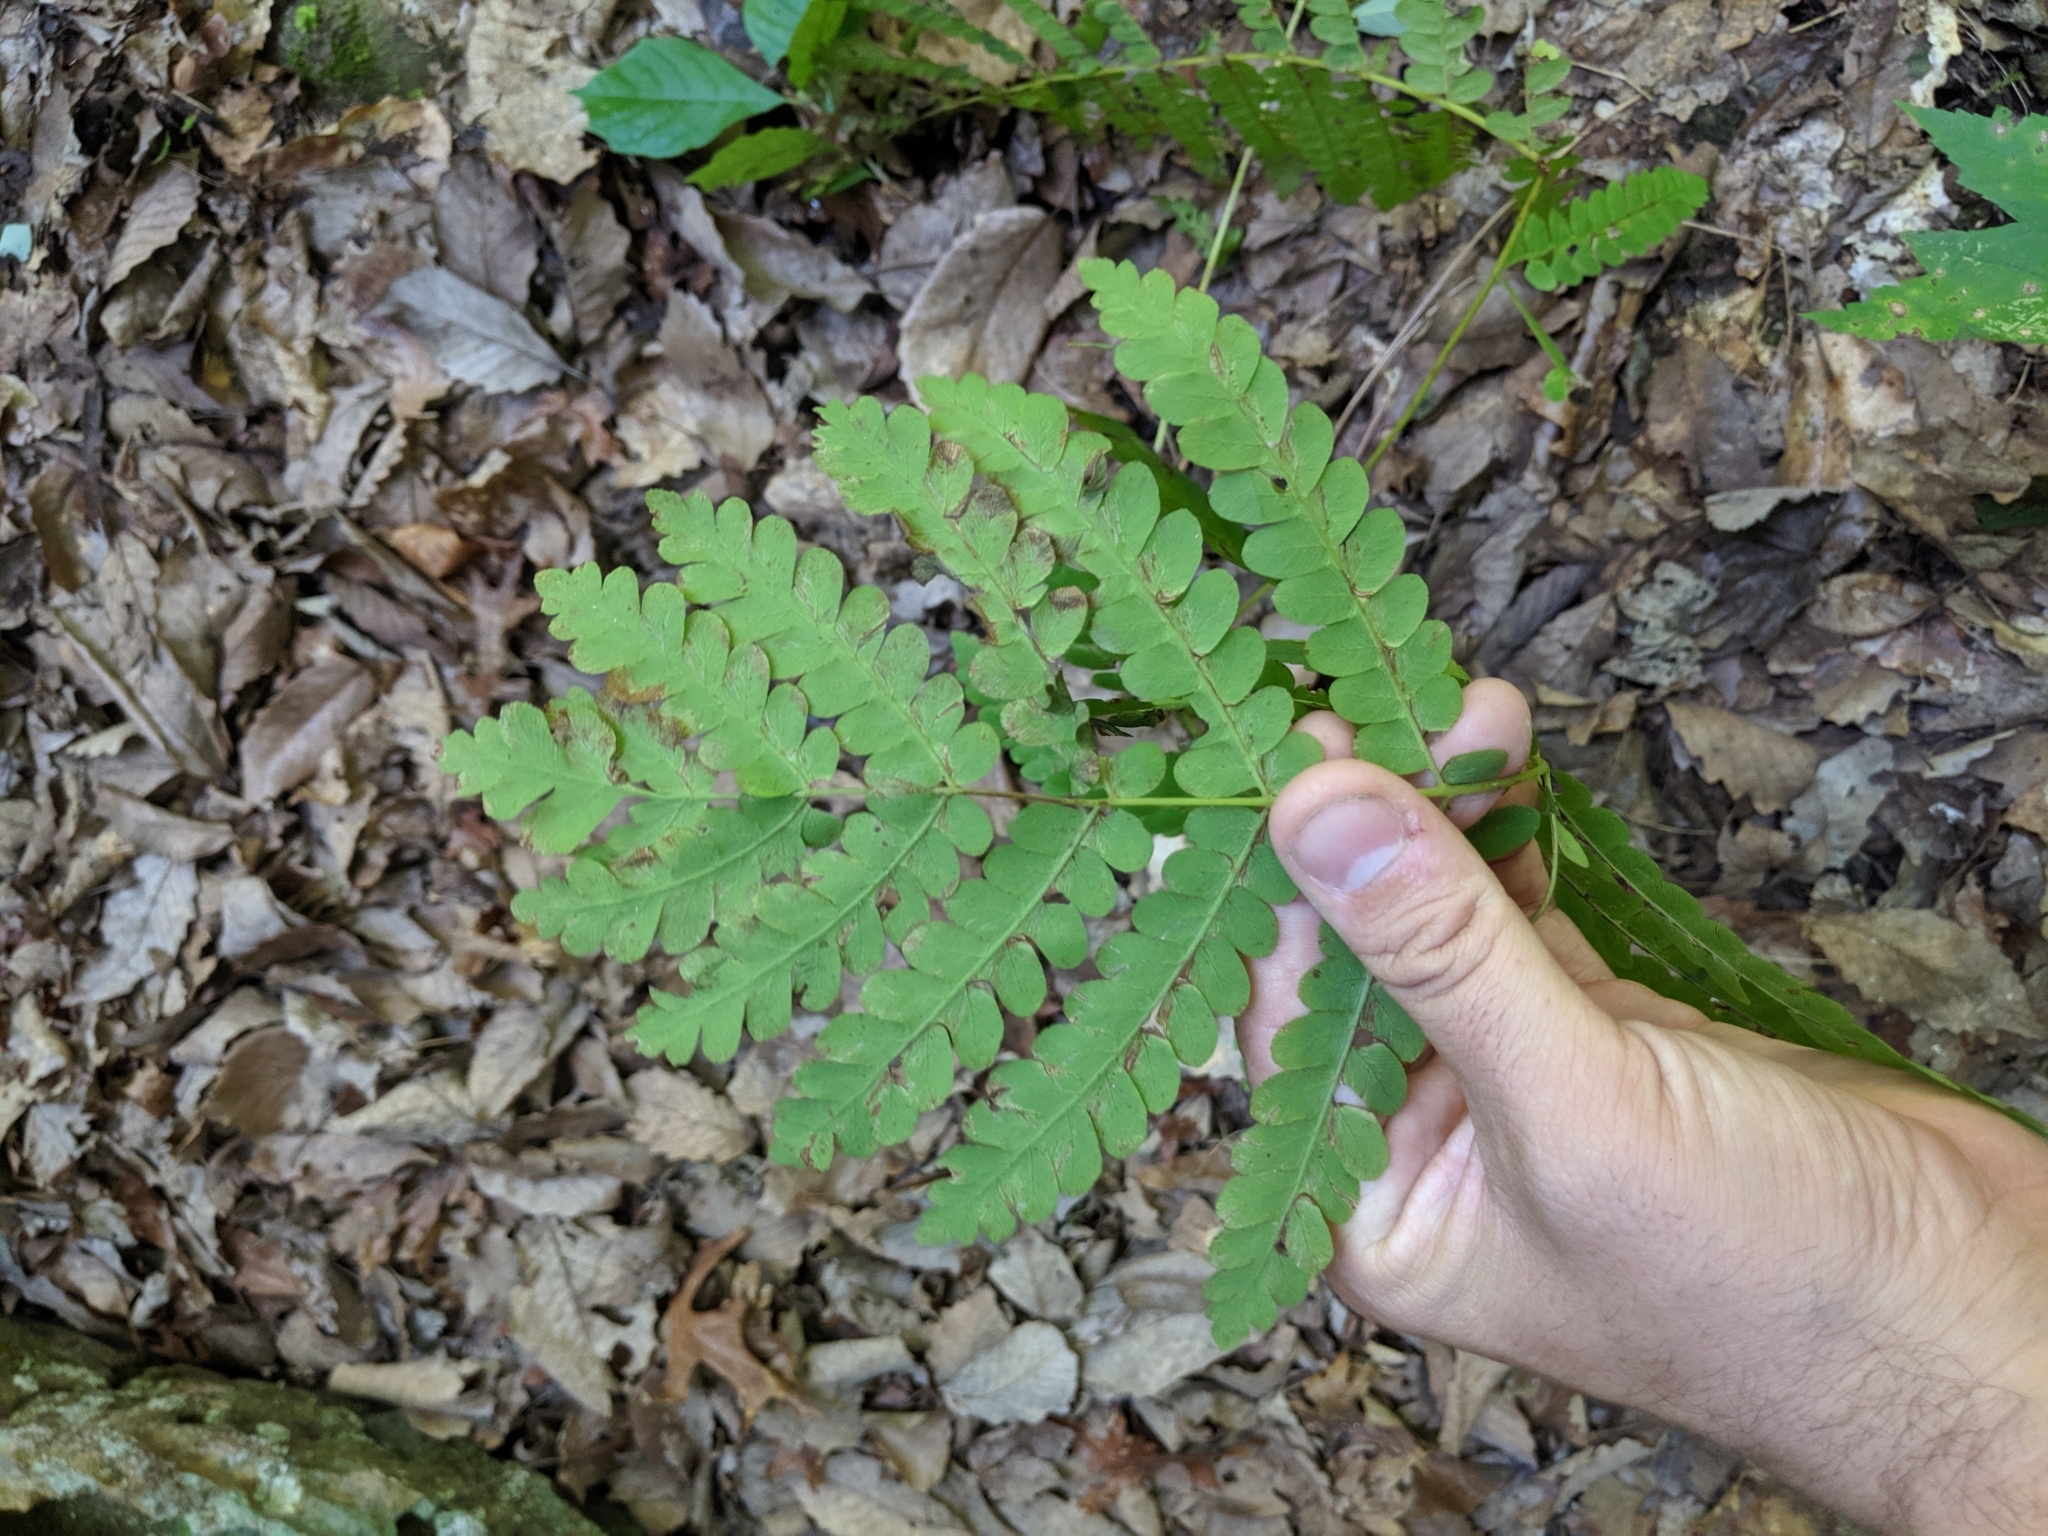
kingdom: Plantae
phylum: Tracheophyta
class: Polypodiopsida
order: Osmundales
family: Osmundaceae
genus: Claytosmunda
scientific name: Claytosmunda claytoniana
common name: Clayton's fern
